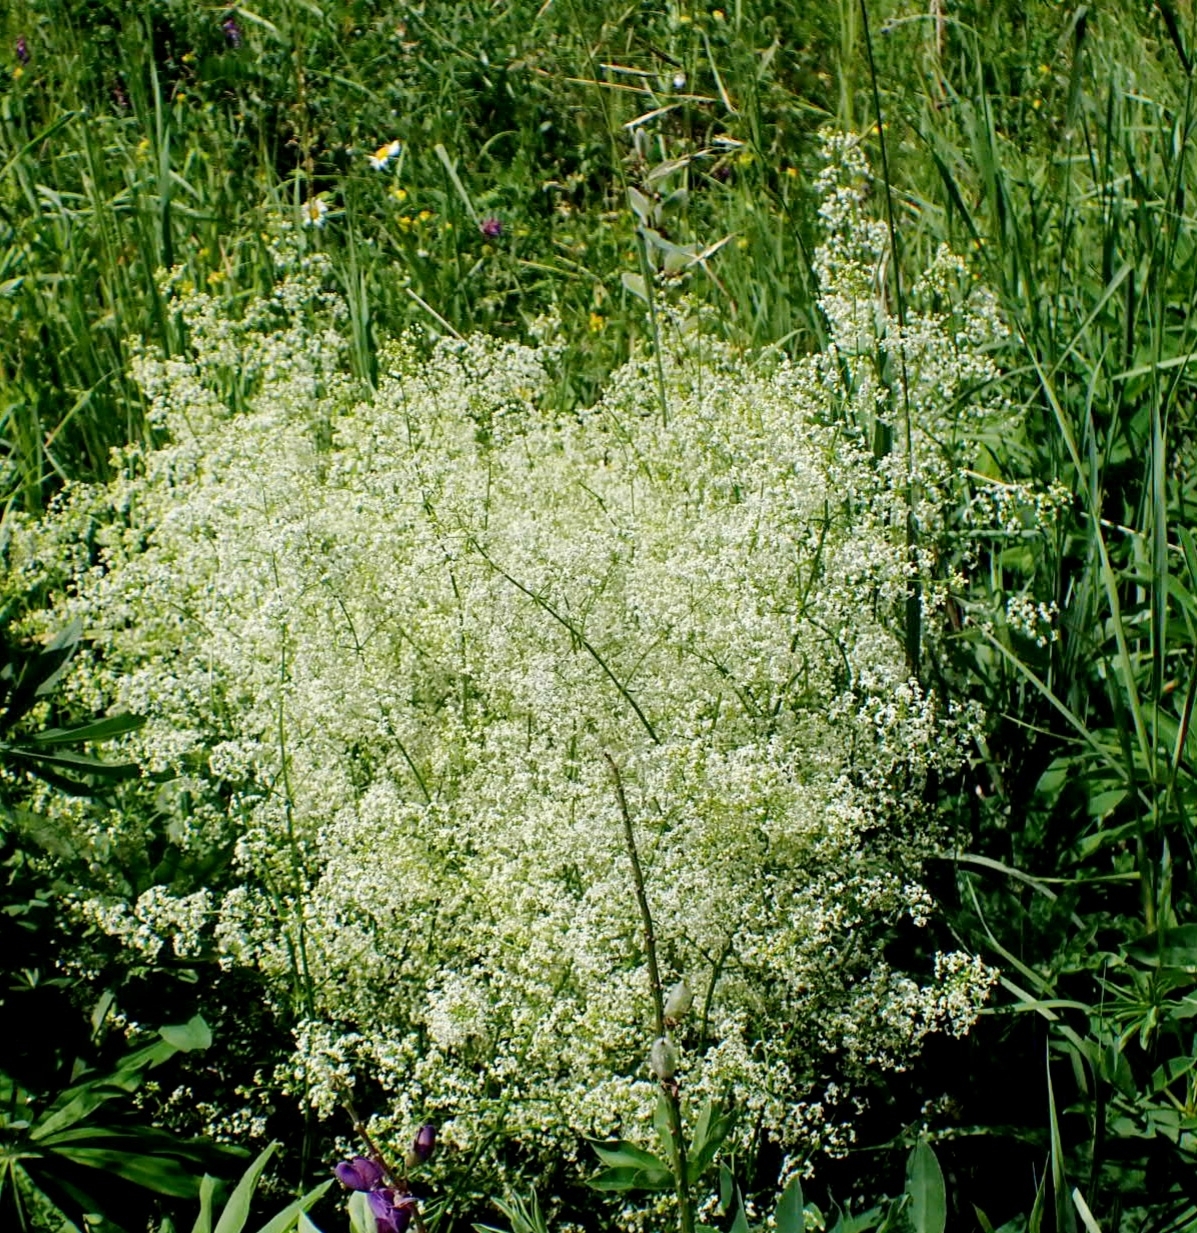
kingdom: Plantae
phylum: Tracheophyta
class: Magnoliopsida
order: Gentianales
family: Rubiaceae
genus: Galium
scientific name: Galium mollugo
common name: Hedge bedstraw
